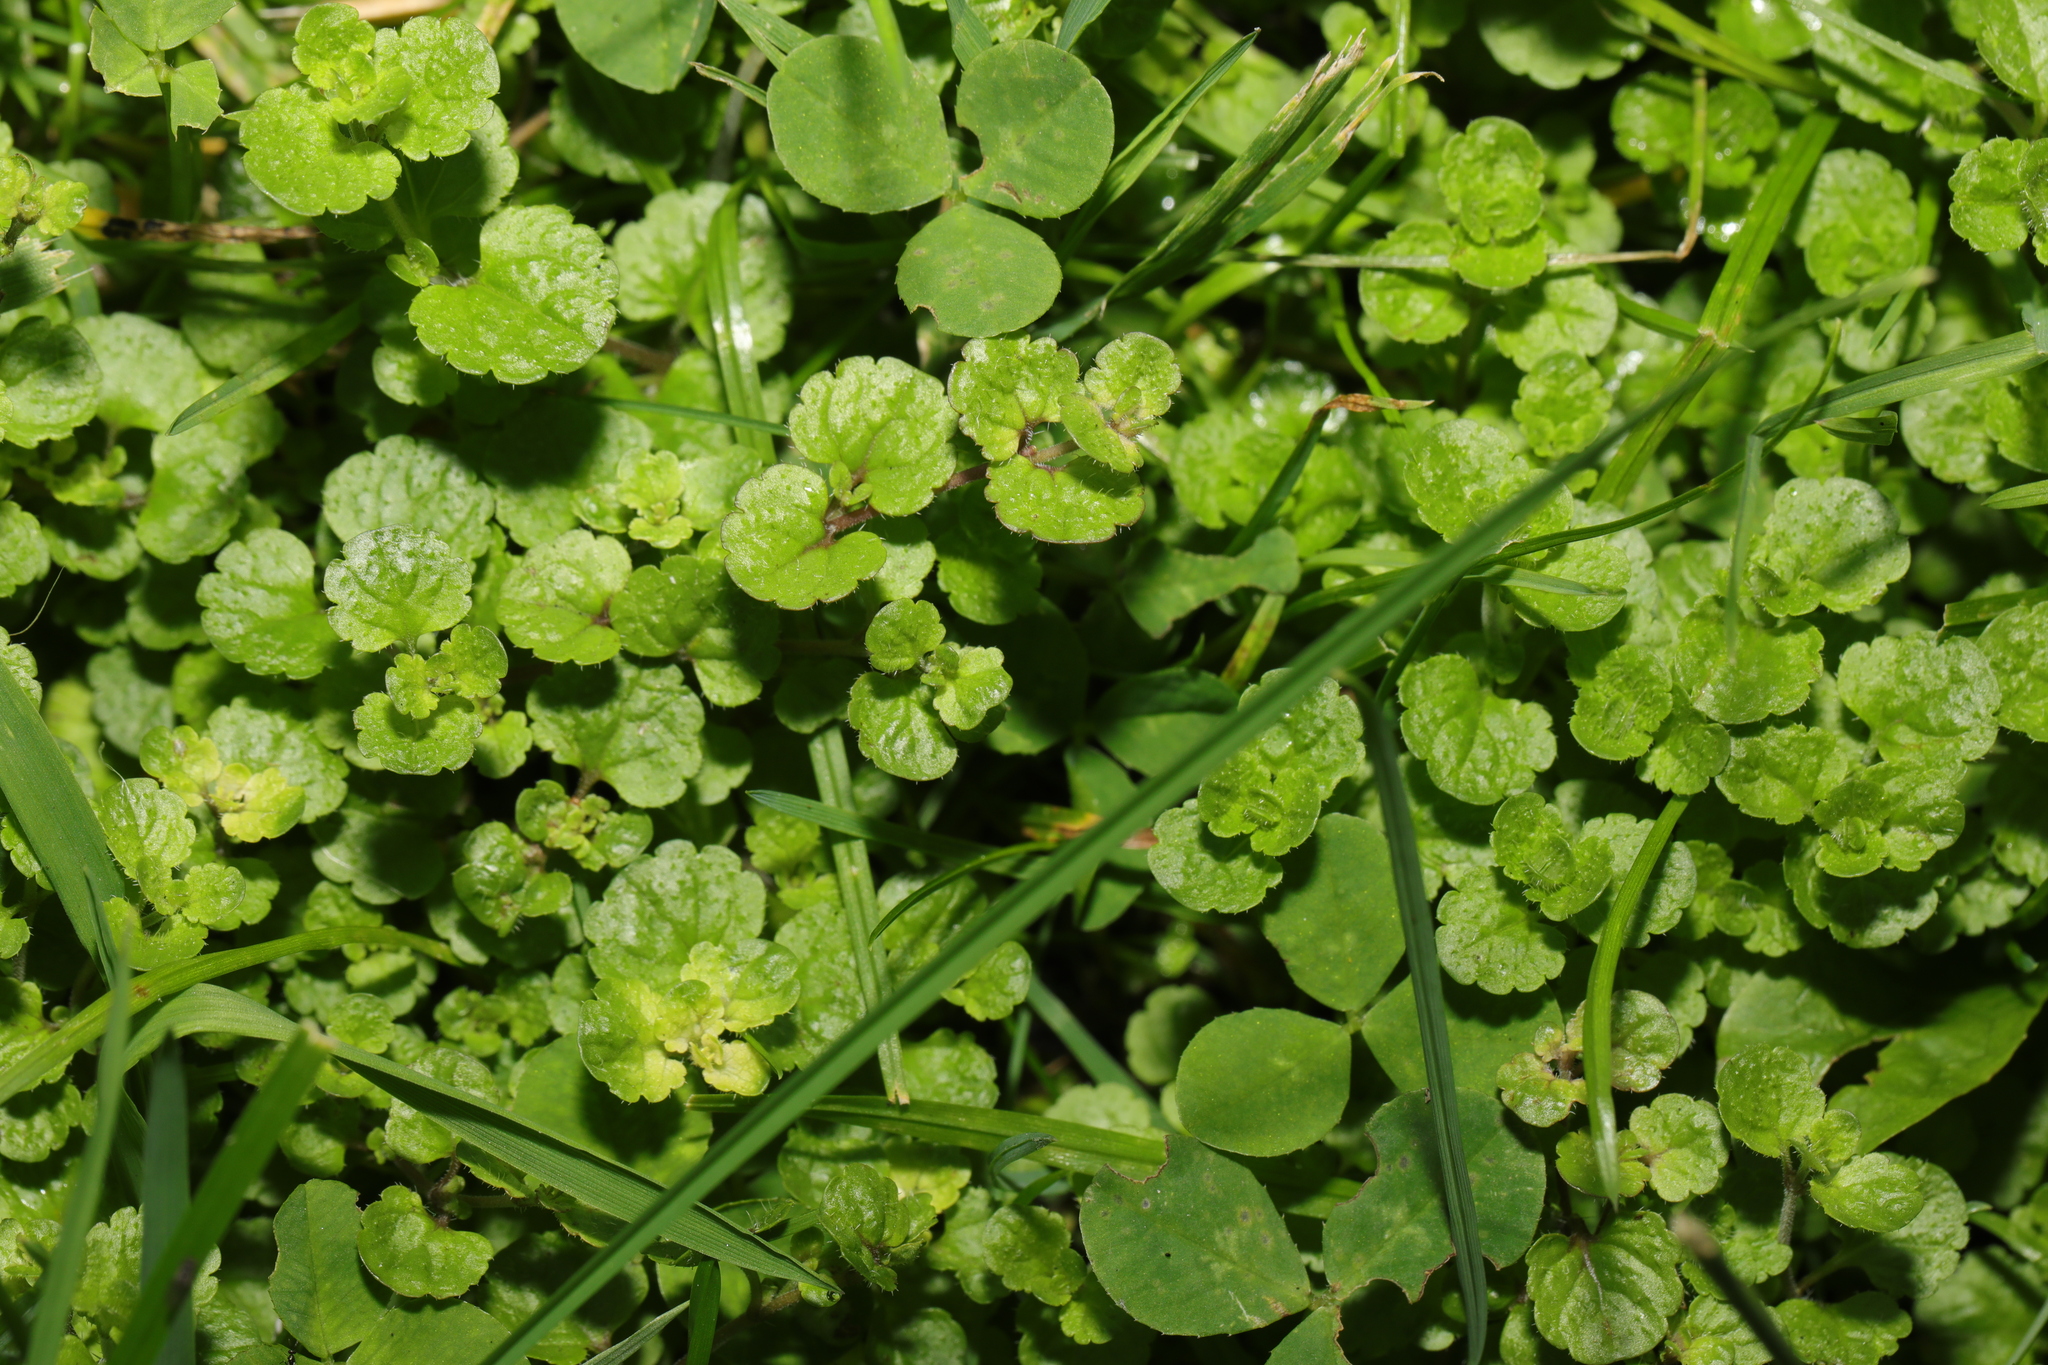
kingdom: Plantae
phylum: Tracheophyta
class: Magnoliopsida
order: Lamiales
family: Plantaginaceae
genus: Veronica
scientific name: Veronica filiformis
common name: Slender speedwell
